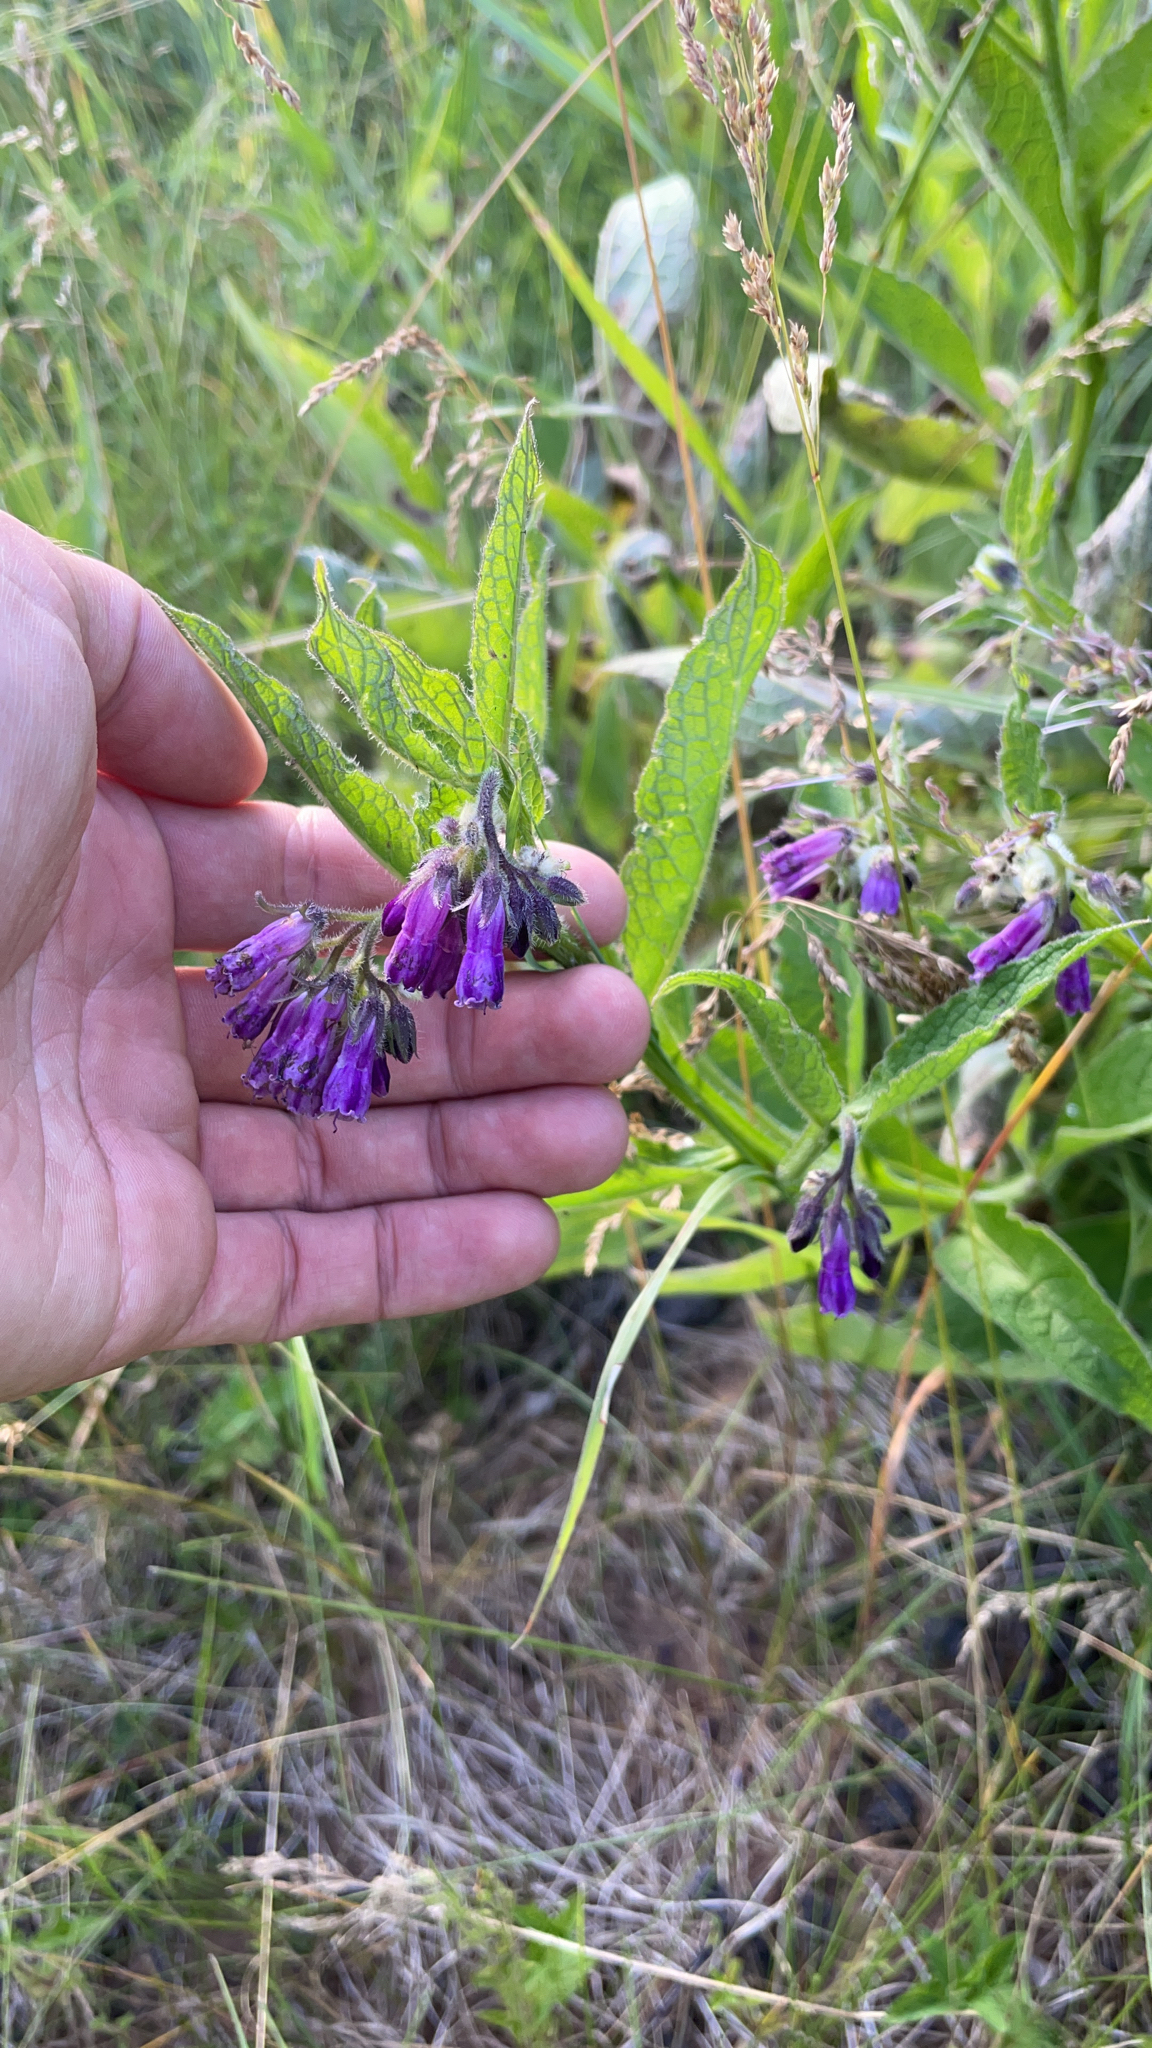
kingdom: Plantae
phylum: Tracheophyta
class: Magnoliopsida
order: Boraginales
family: Boraginaceae
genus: Symphytum
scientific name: Symphytum officinale
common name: Common comfrey
